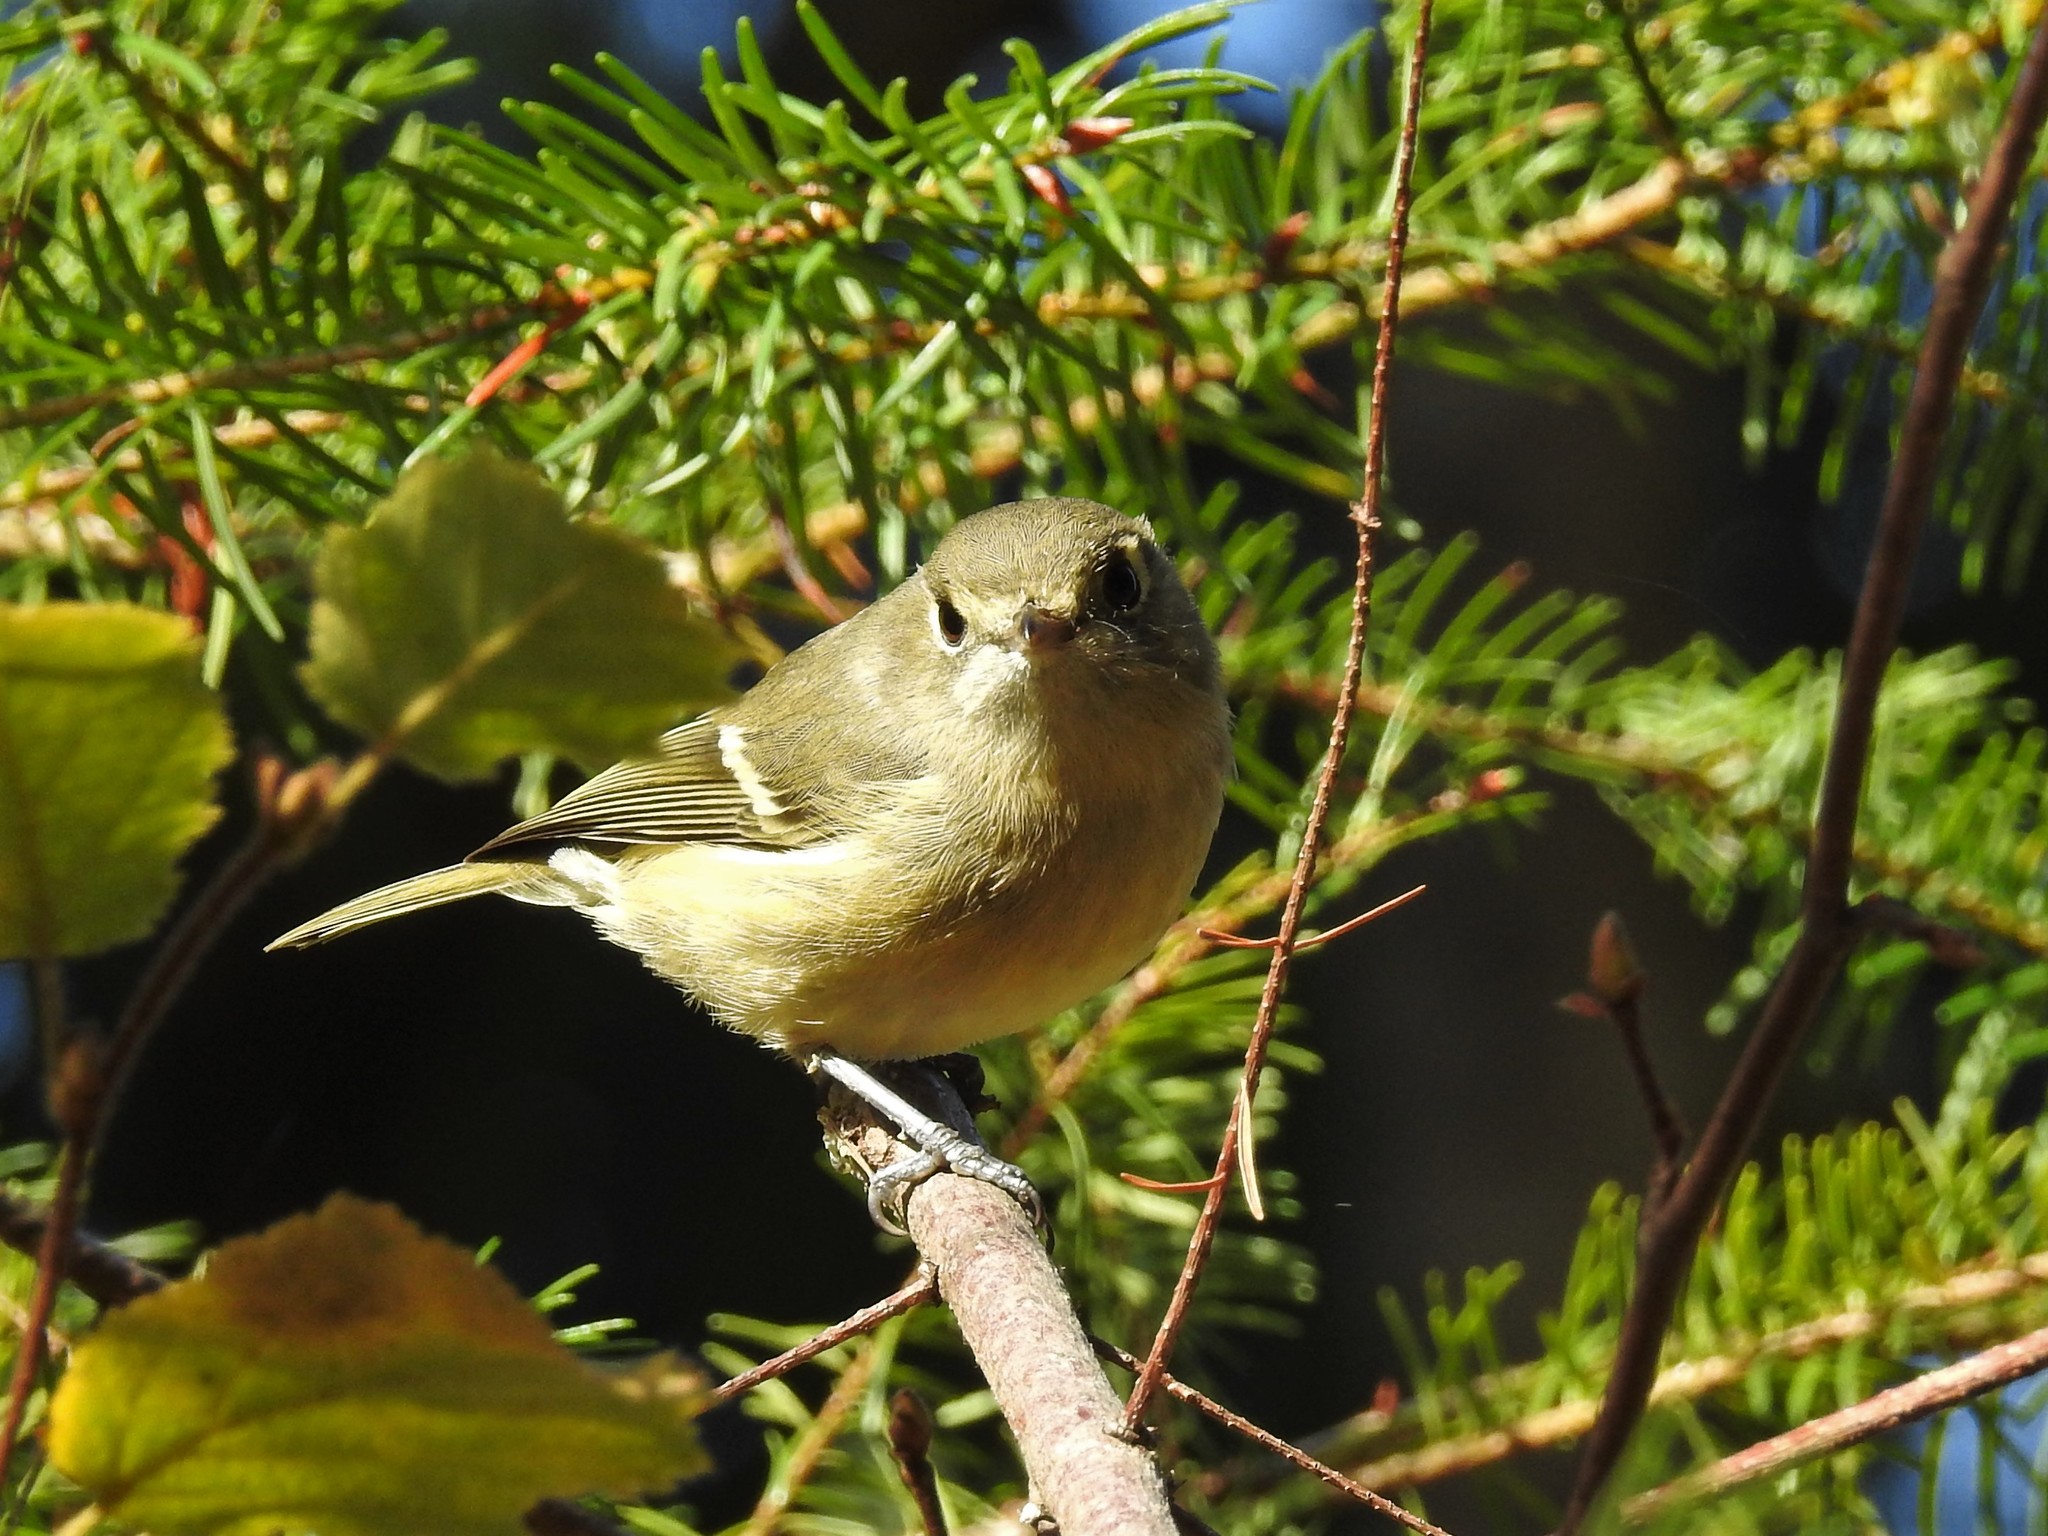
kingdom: Animalia
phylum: Chordata
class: Aves
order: Passeriformes
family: Vireonidae
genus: Vireo
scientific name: Vireo huttoni
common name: Hutton's vireo
